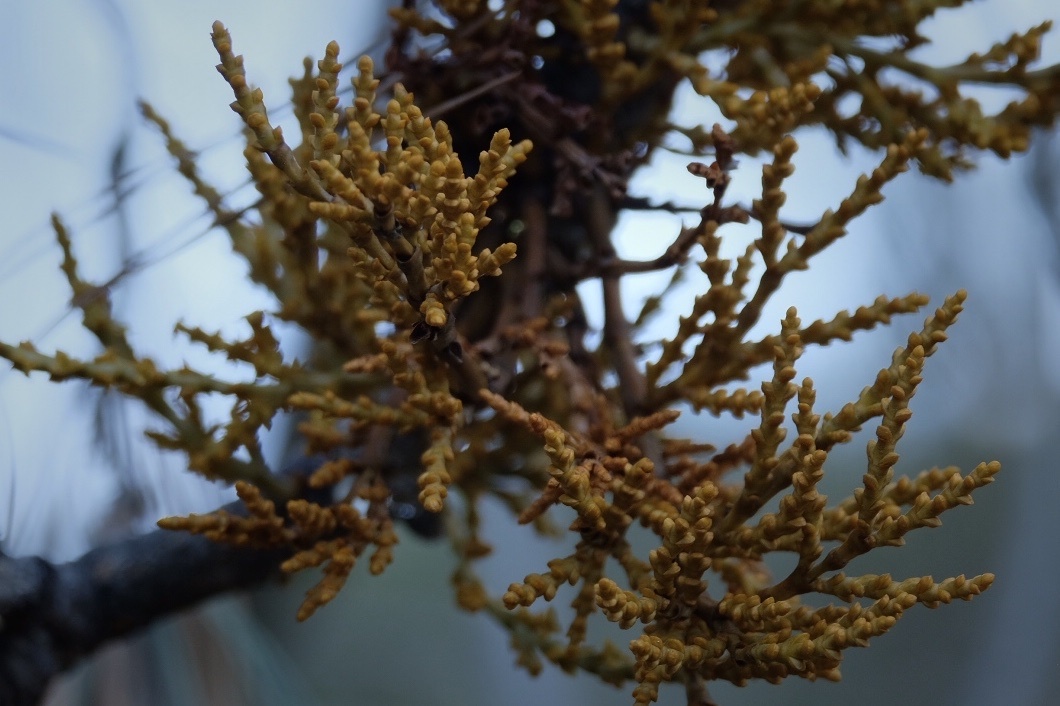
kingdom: Plantae
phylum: Tracheophyta
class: Magnoliopsida
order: Santalales
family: Viscaceae
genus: Arceuthobium
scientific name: Arceuthobium campylopodum
